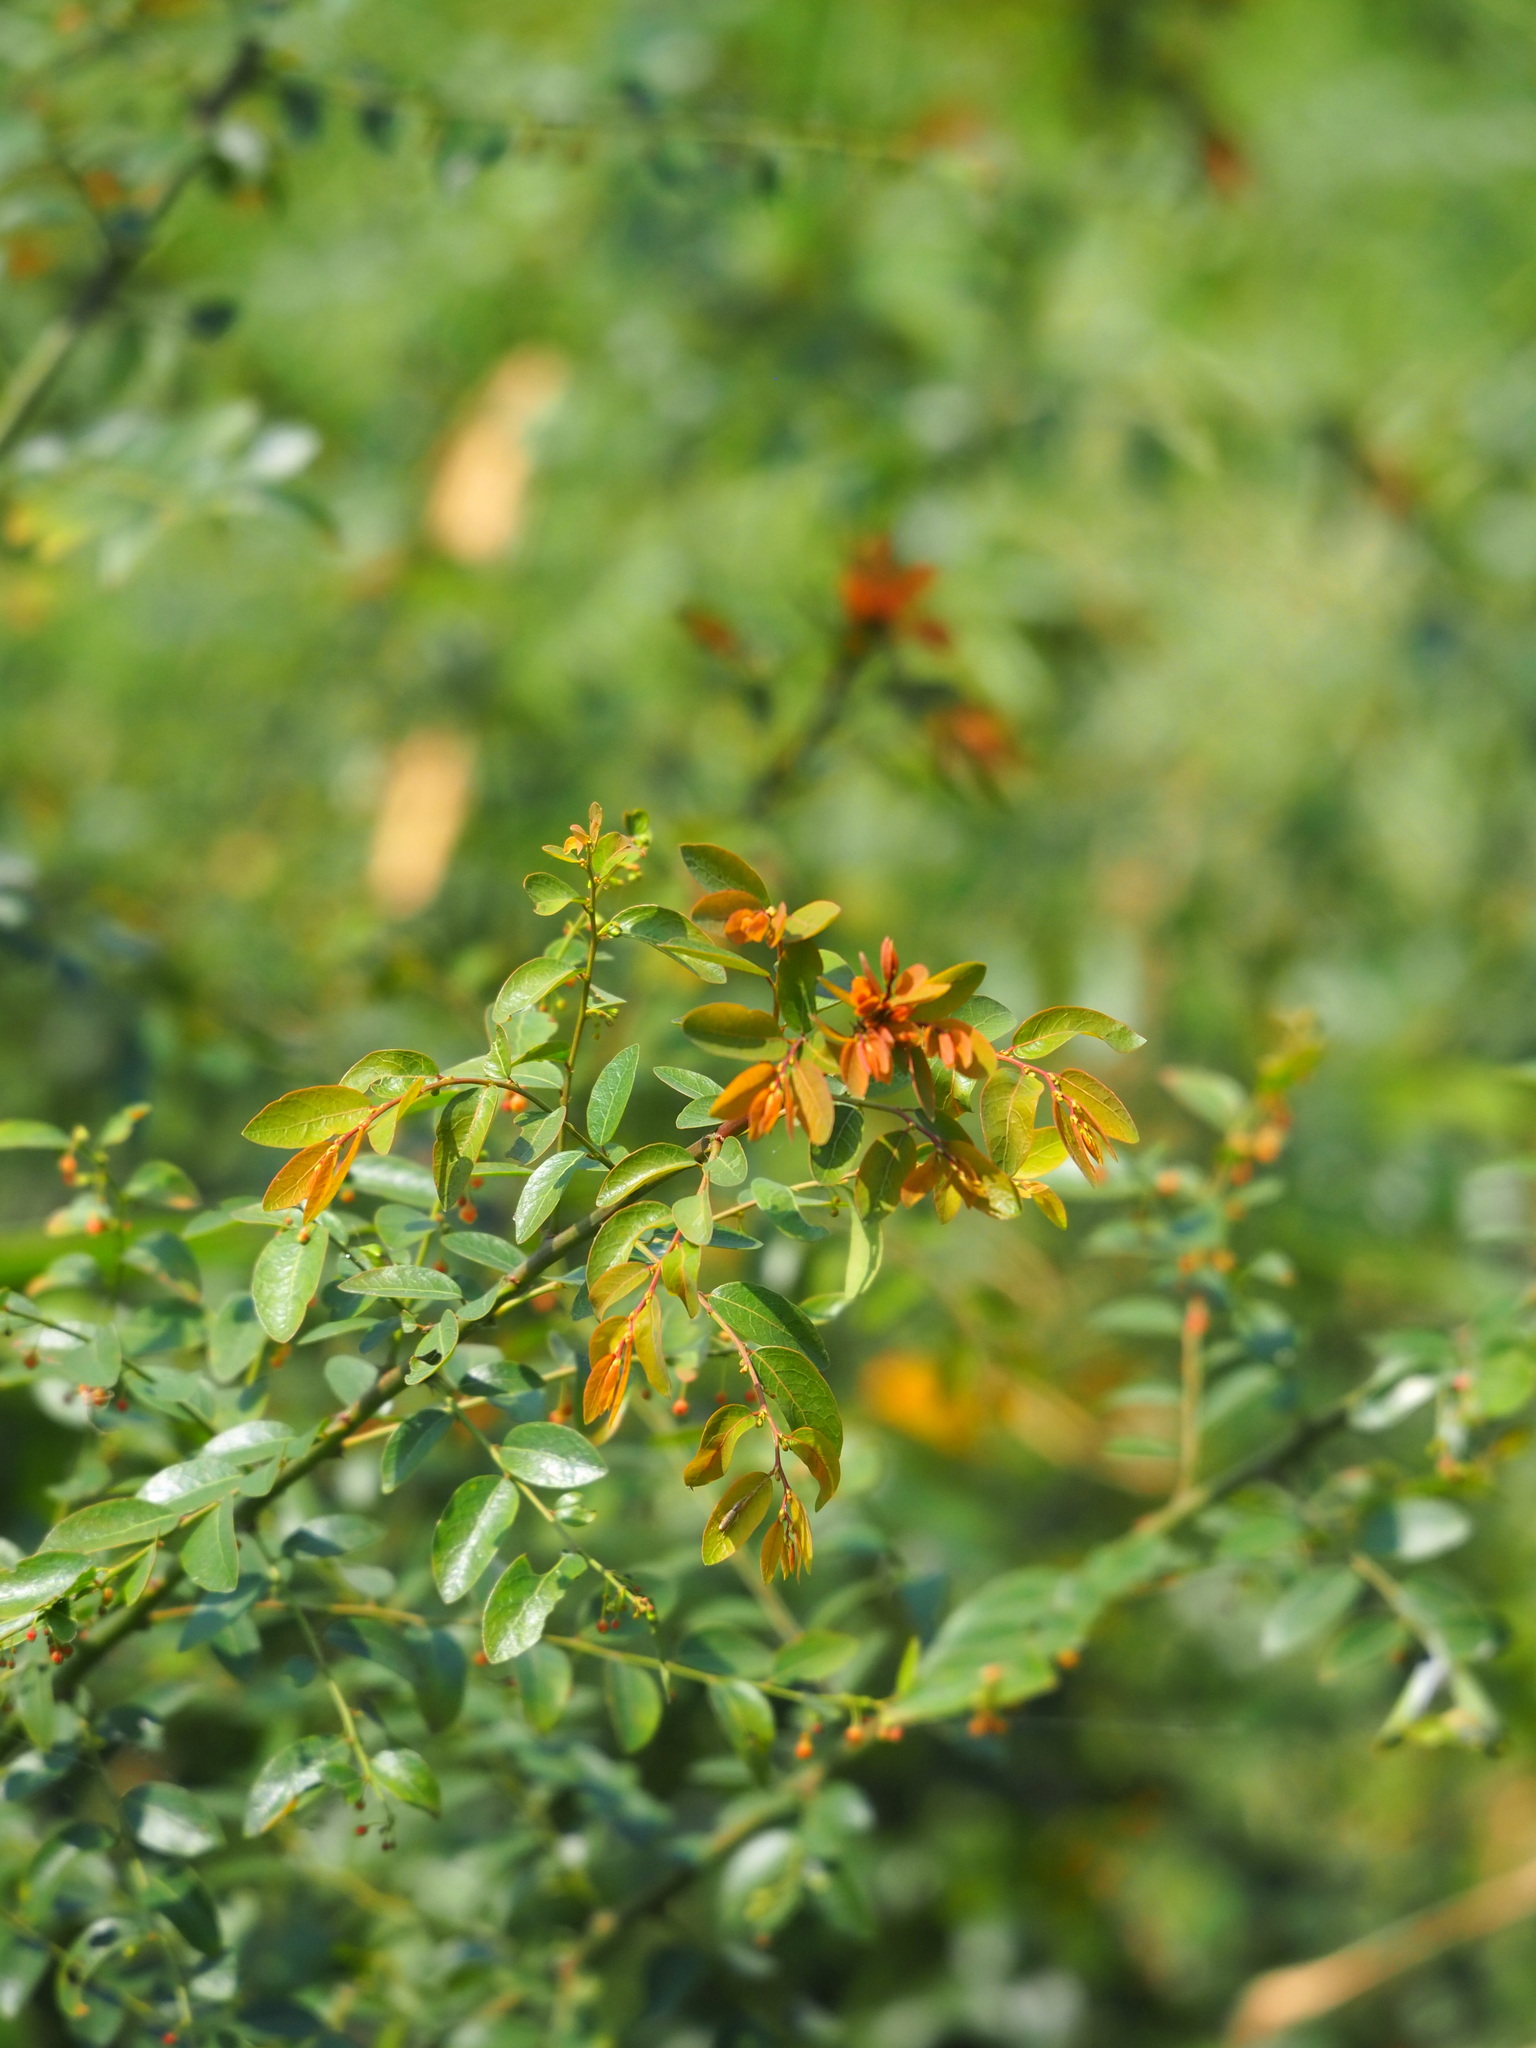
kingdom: Plantae
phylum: Tracheophyta
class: Magnoliopsida
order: Malpighiales
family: Phyllanthaceae
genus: Phyllanthus
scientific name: Phyllanthus reticulatus
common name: Potato bush
